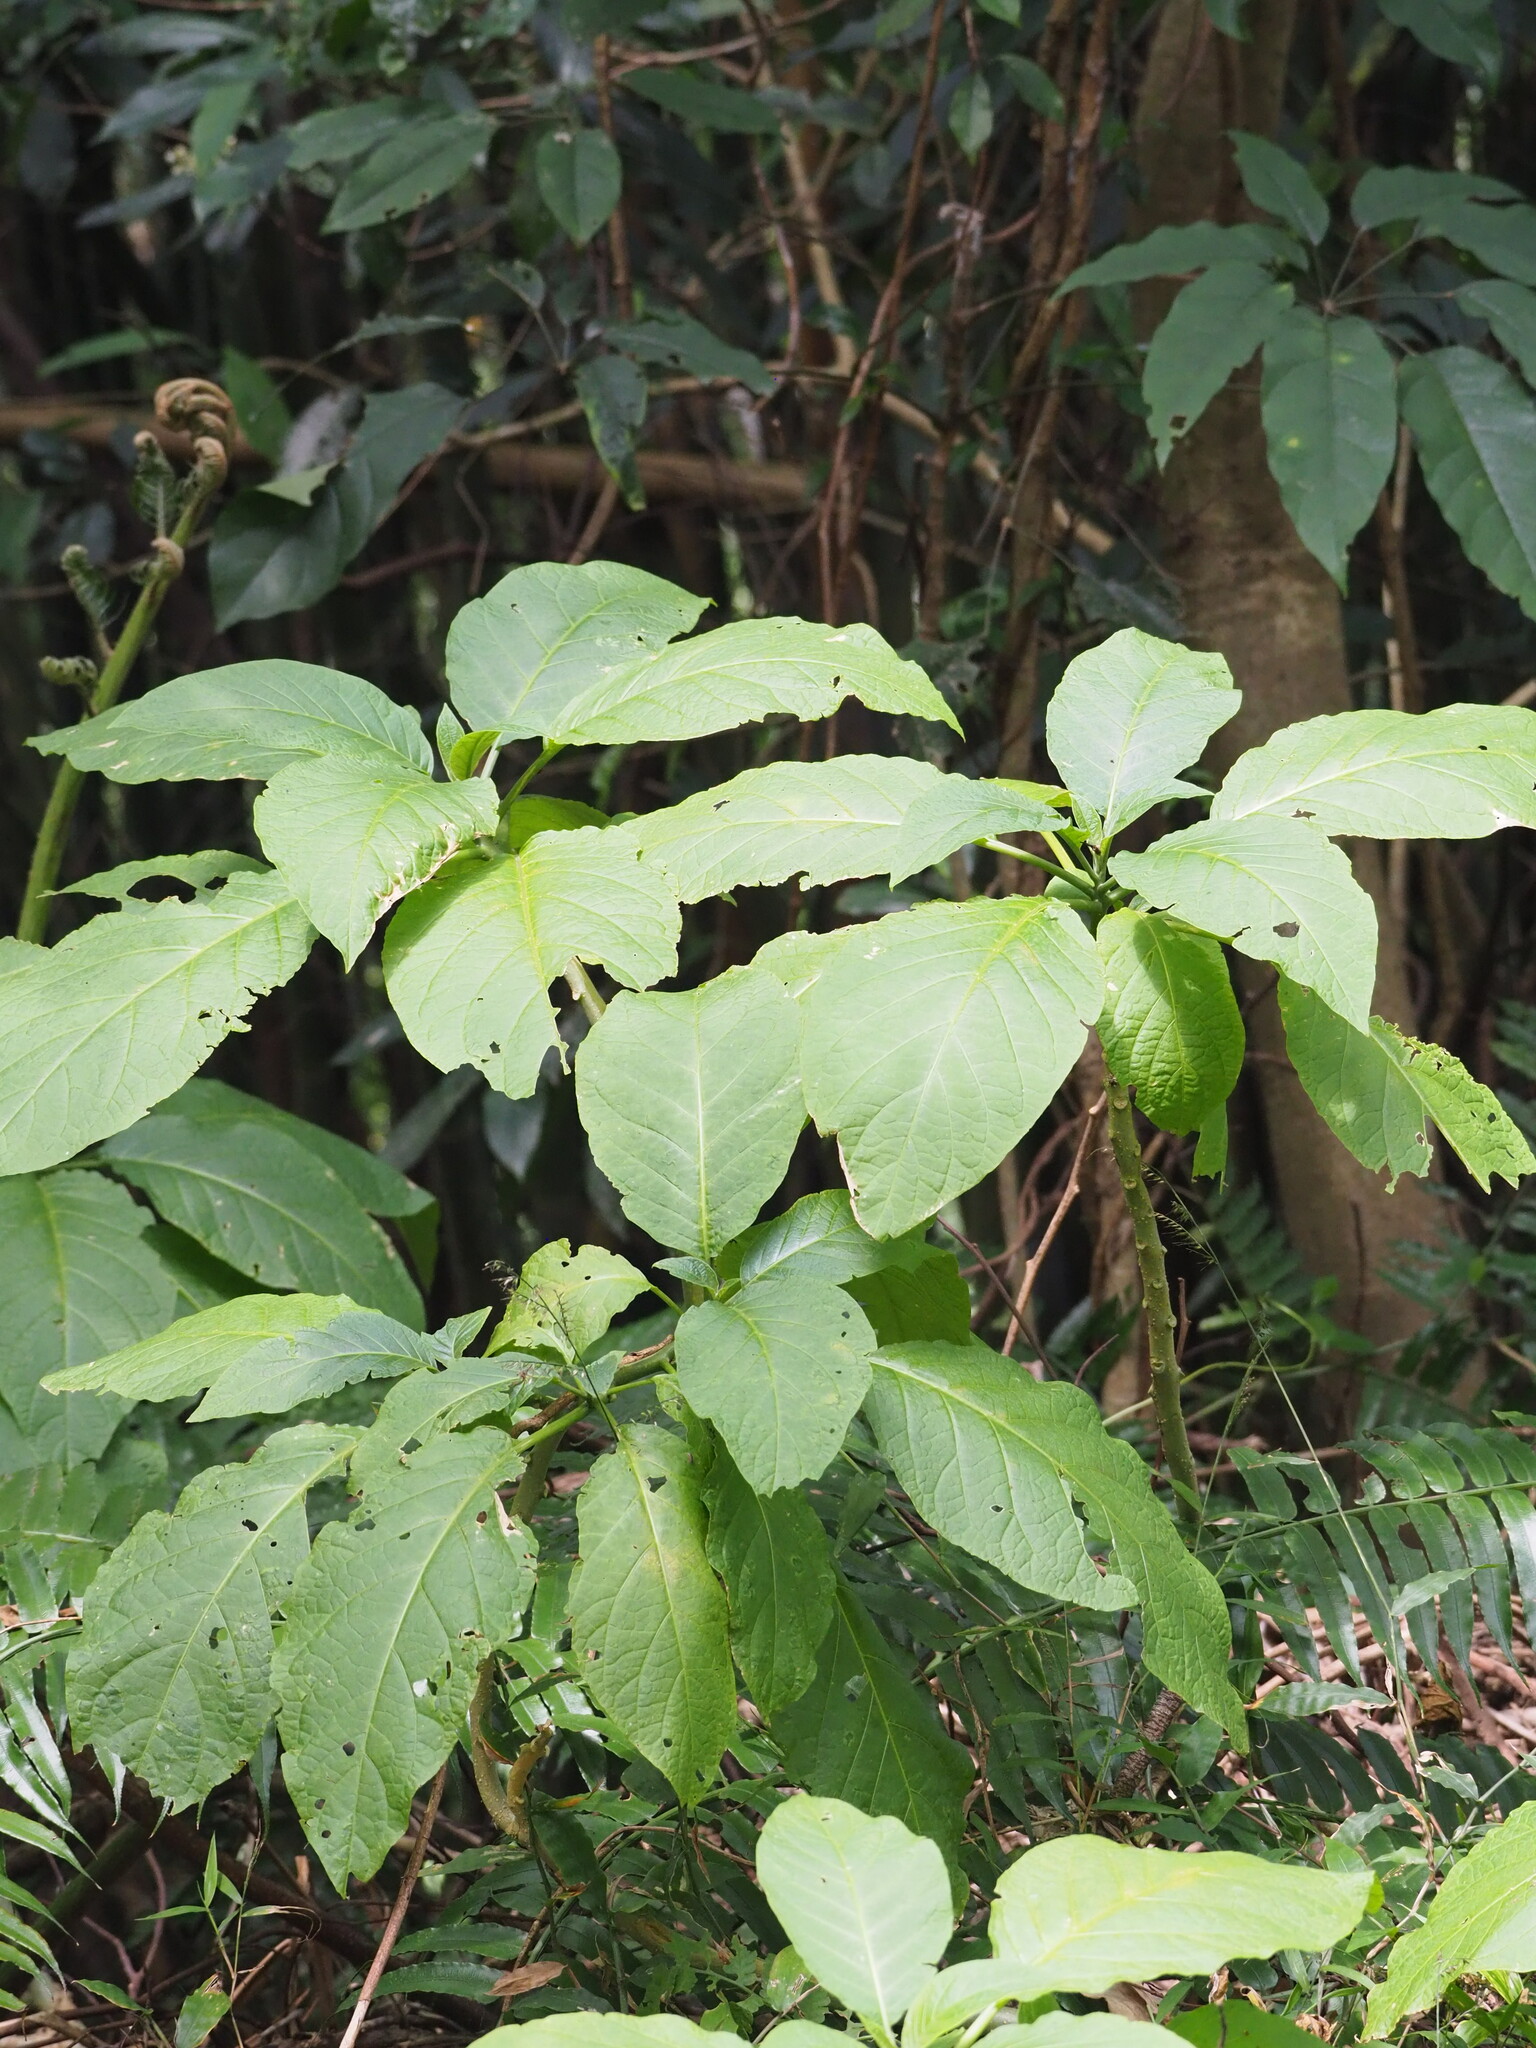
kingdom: Plantae
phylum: Tracheophyta
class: Magnoliopsida
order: Solanales
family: Solanaceae
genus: Brugmansia
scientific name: Brugmansia suaveolens
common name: Angel's tears
